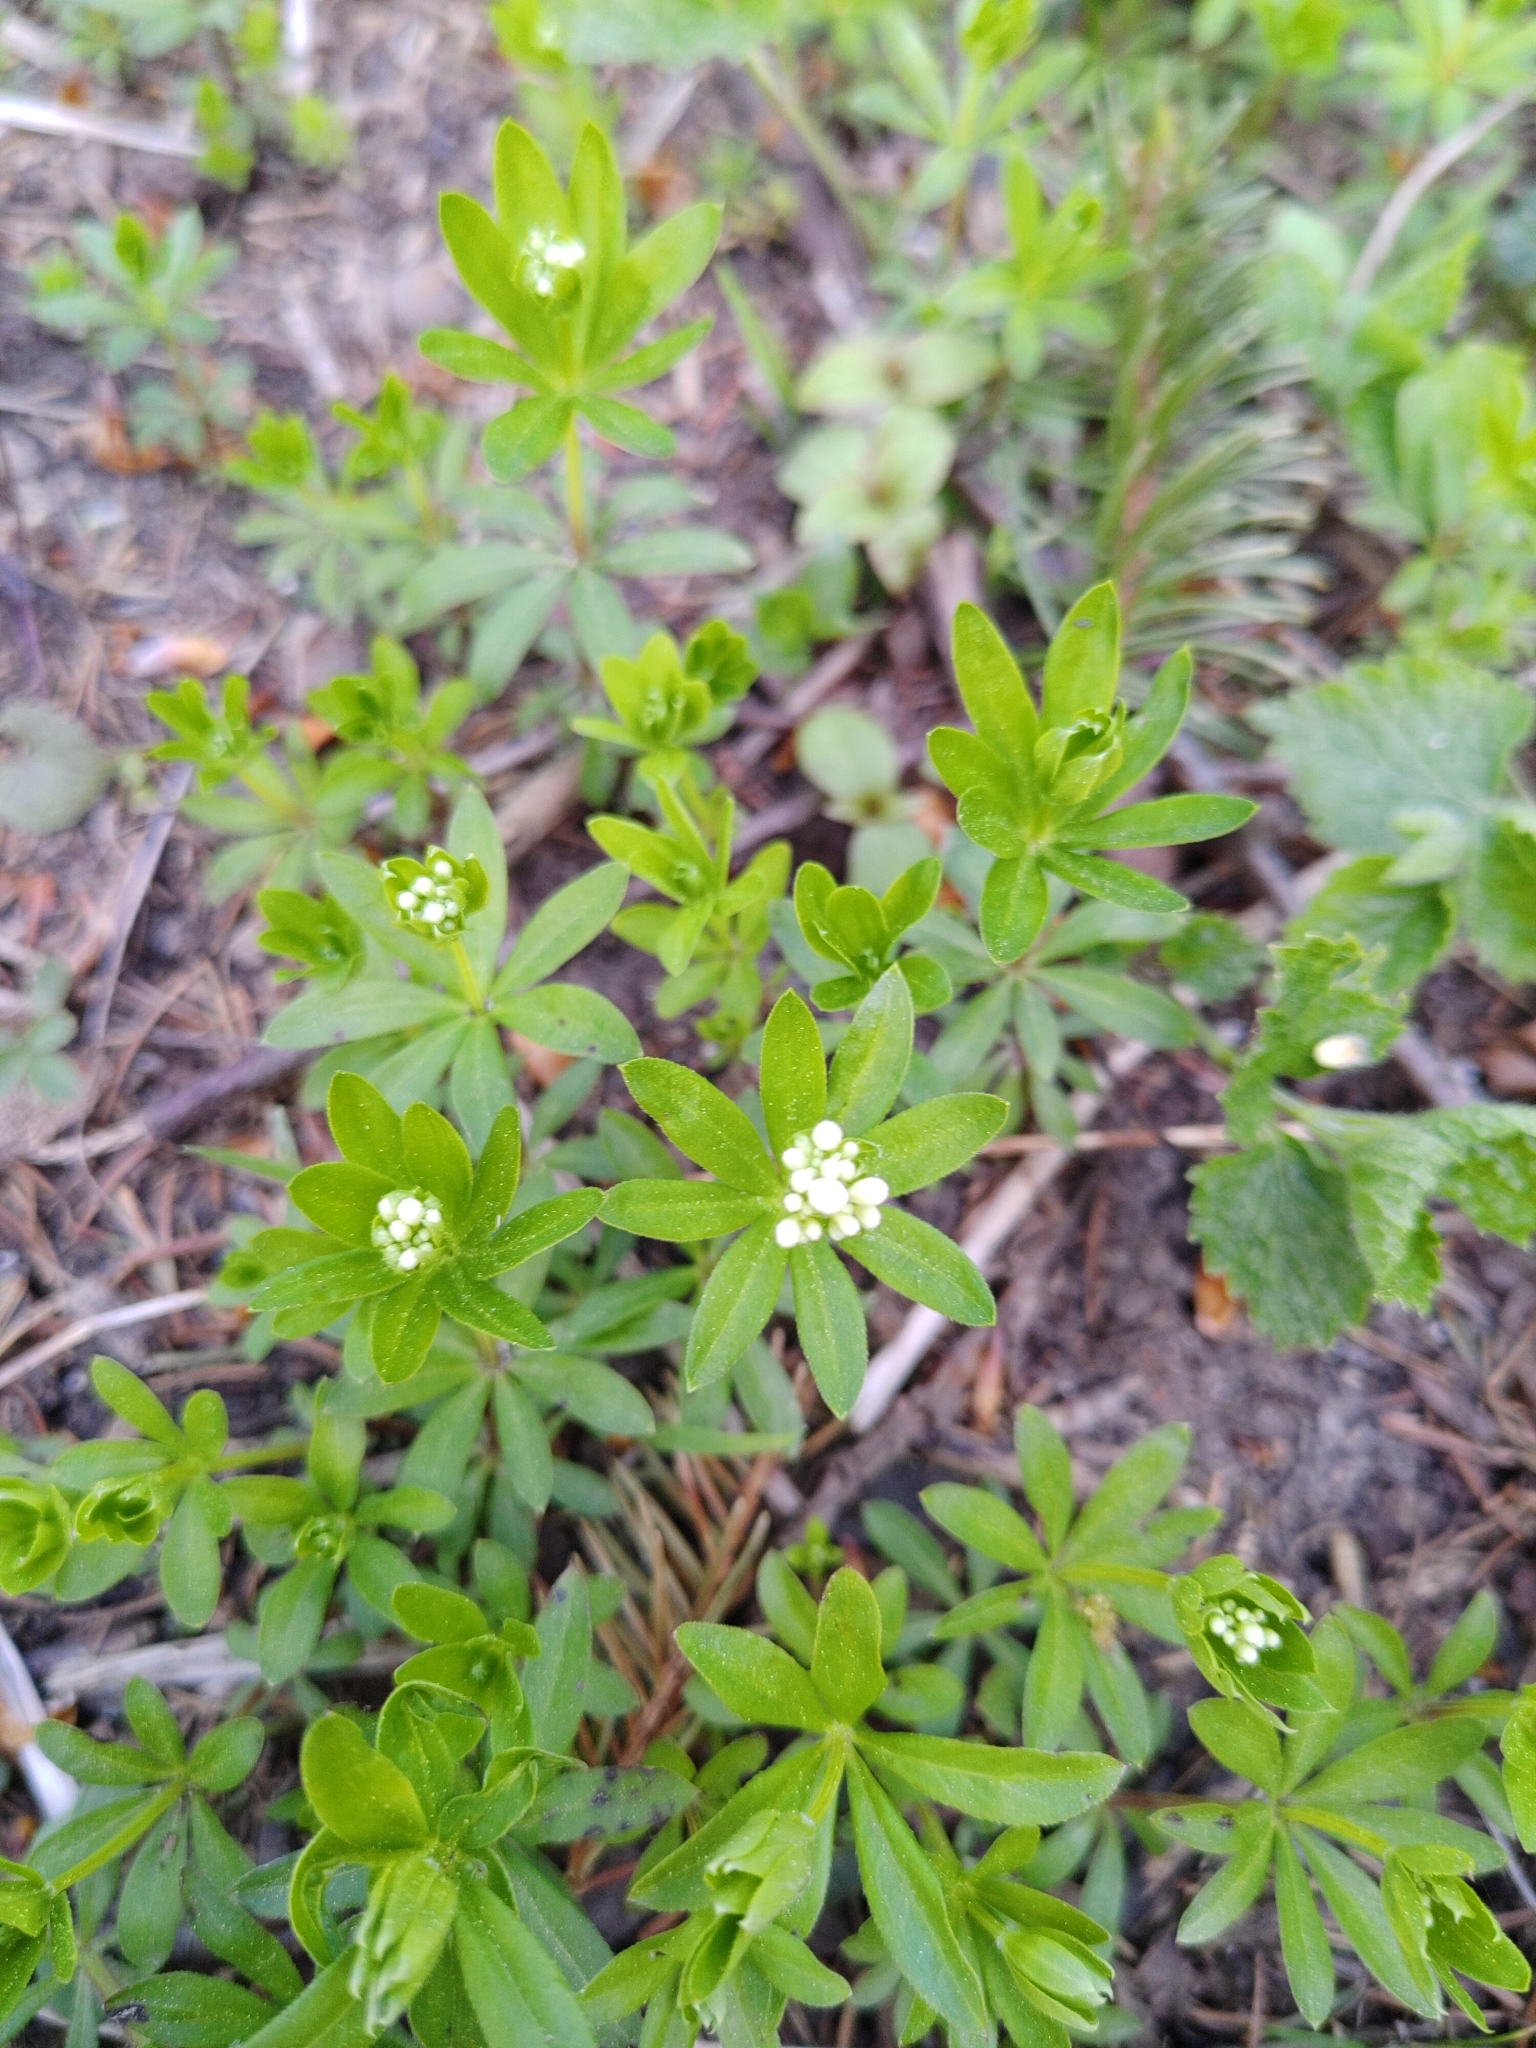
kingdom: Plantae
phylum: Tracheophyta
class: Magnoliopsida
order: Gentianales
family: Rubiaceae
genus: Galium
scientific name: Galium odoratum
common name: Sweet woodruff
